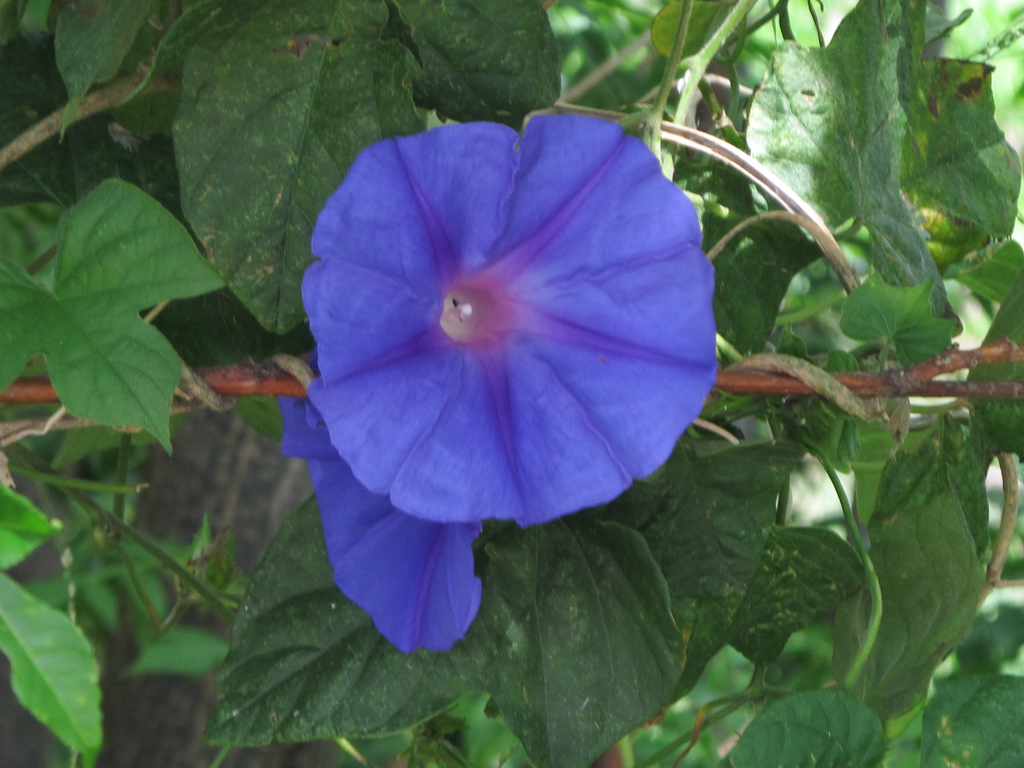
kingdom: Plantae
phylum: Tracheophyta
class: Magnoliopsida
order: Solanales
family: Convolvulaceae
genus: Ipomoea
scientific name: Ipomoea indica
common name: Blue dawnflower
